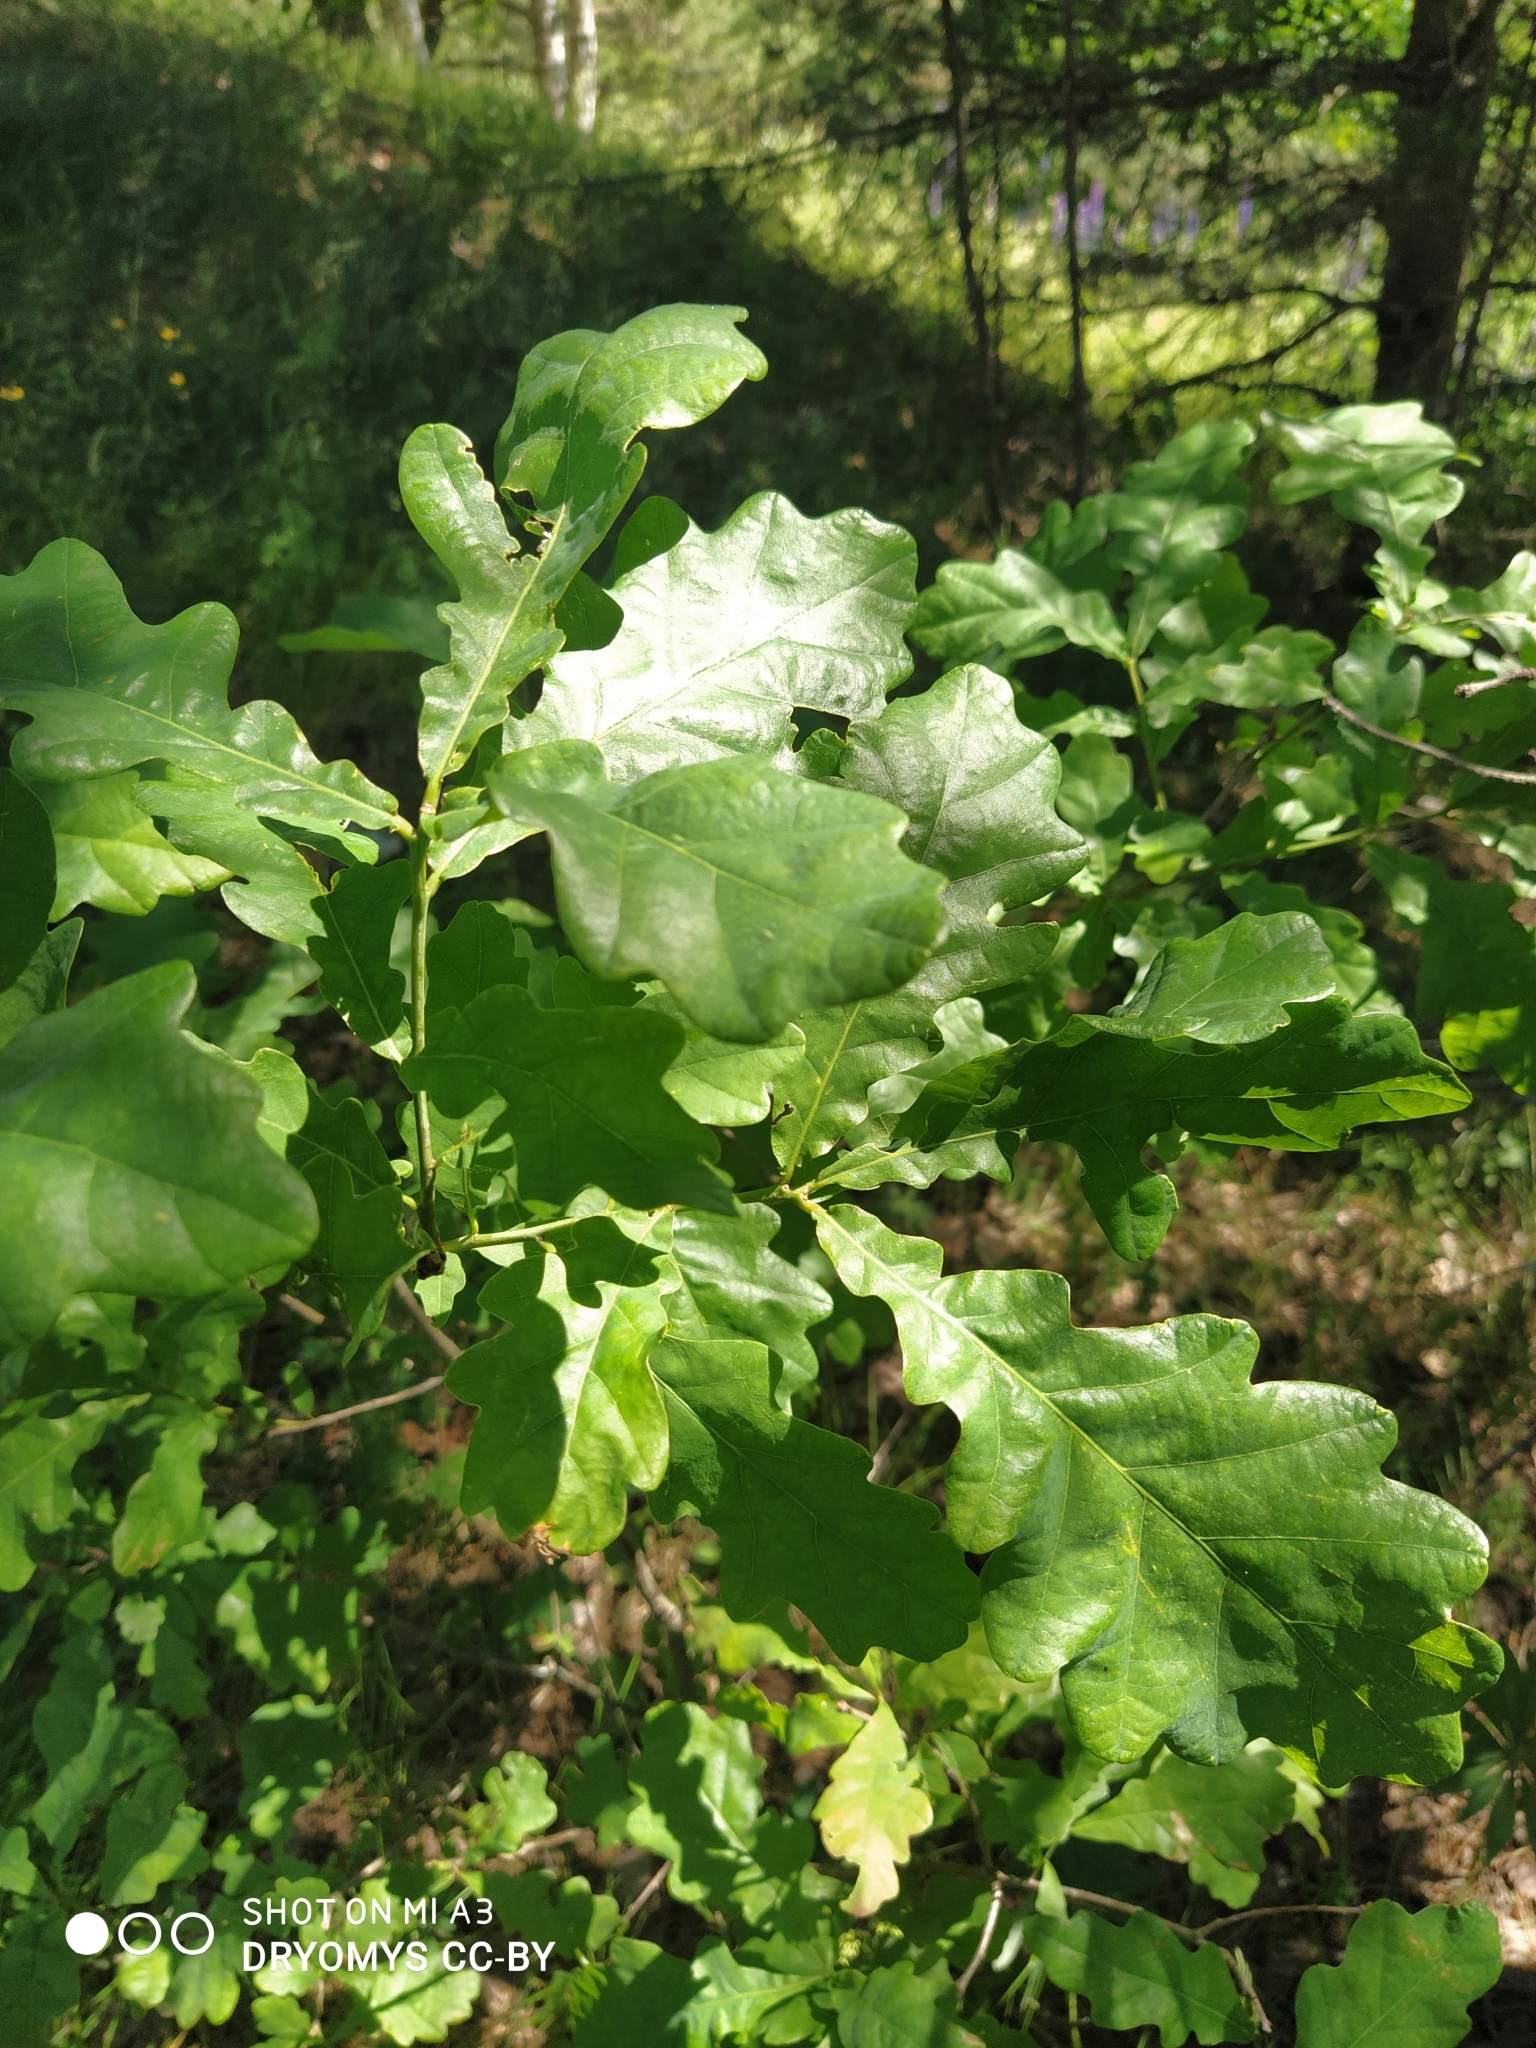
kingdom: Plantae
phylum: Tracheophyta
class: Magnoliopsida
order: Fagales
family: Fagaceae
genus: Quercus
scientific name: Quercus robur
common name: Pedunculate oak
